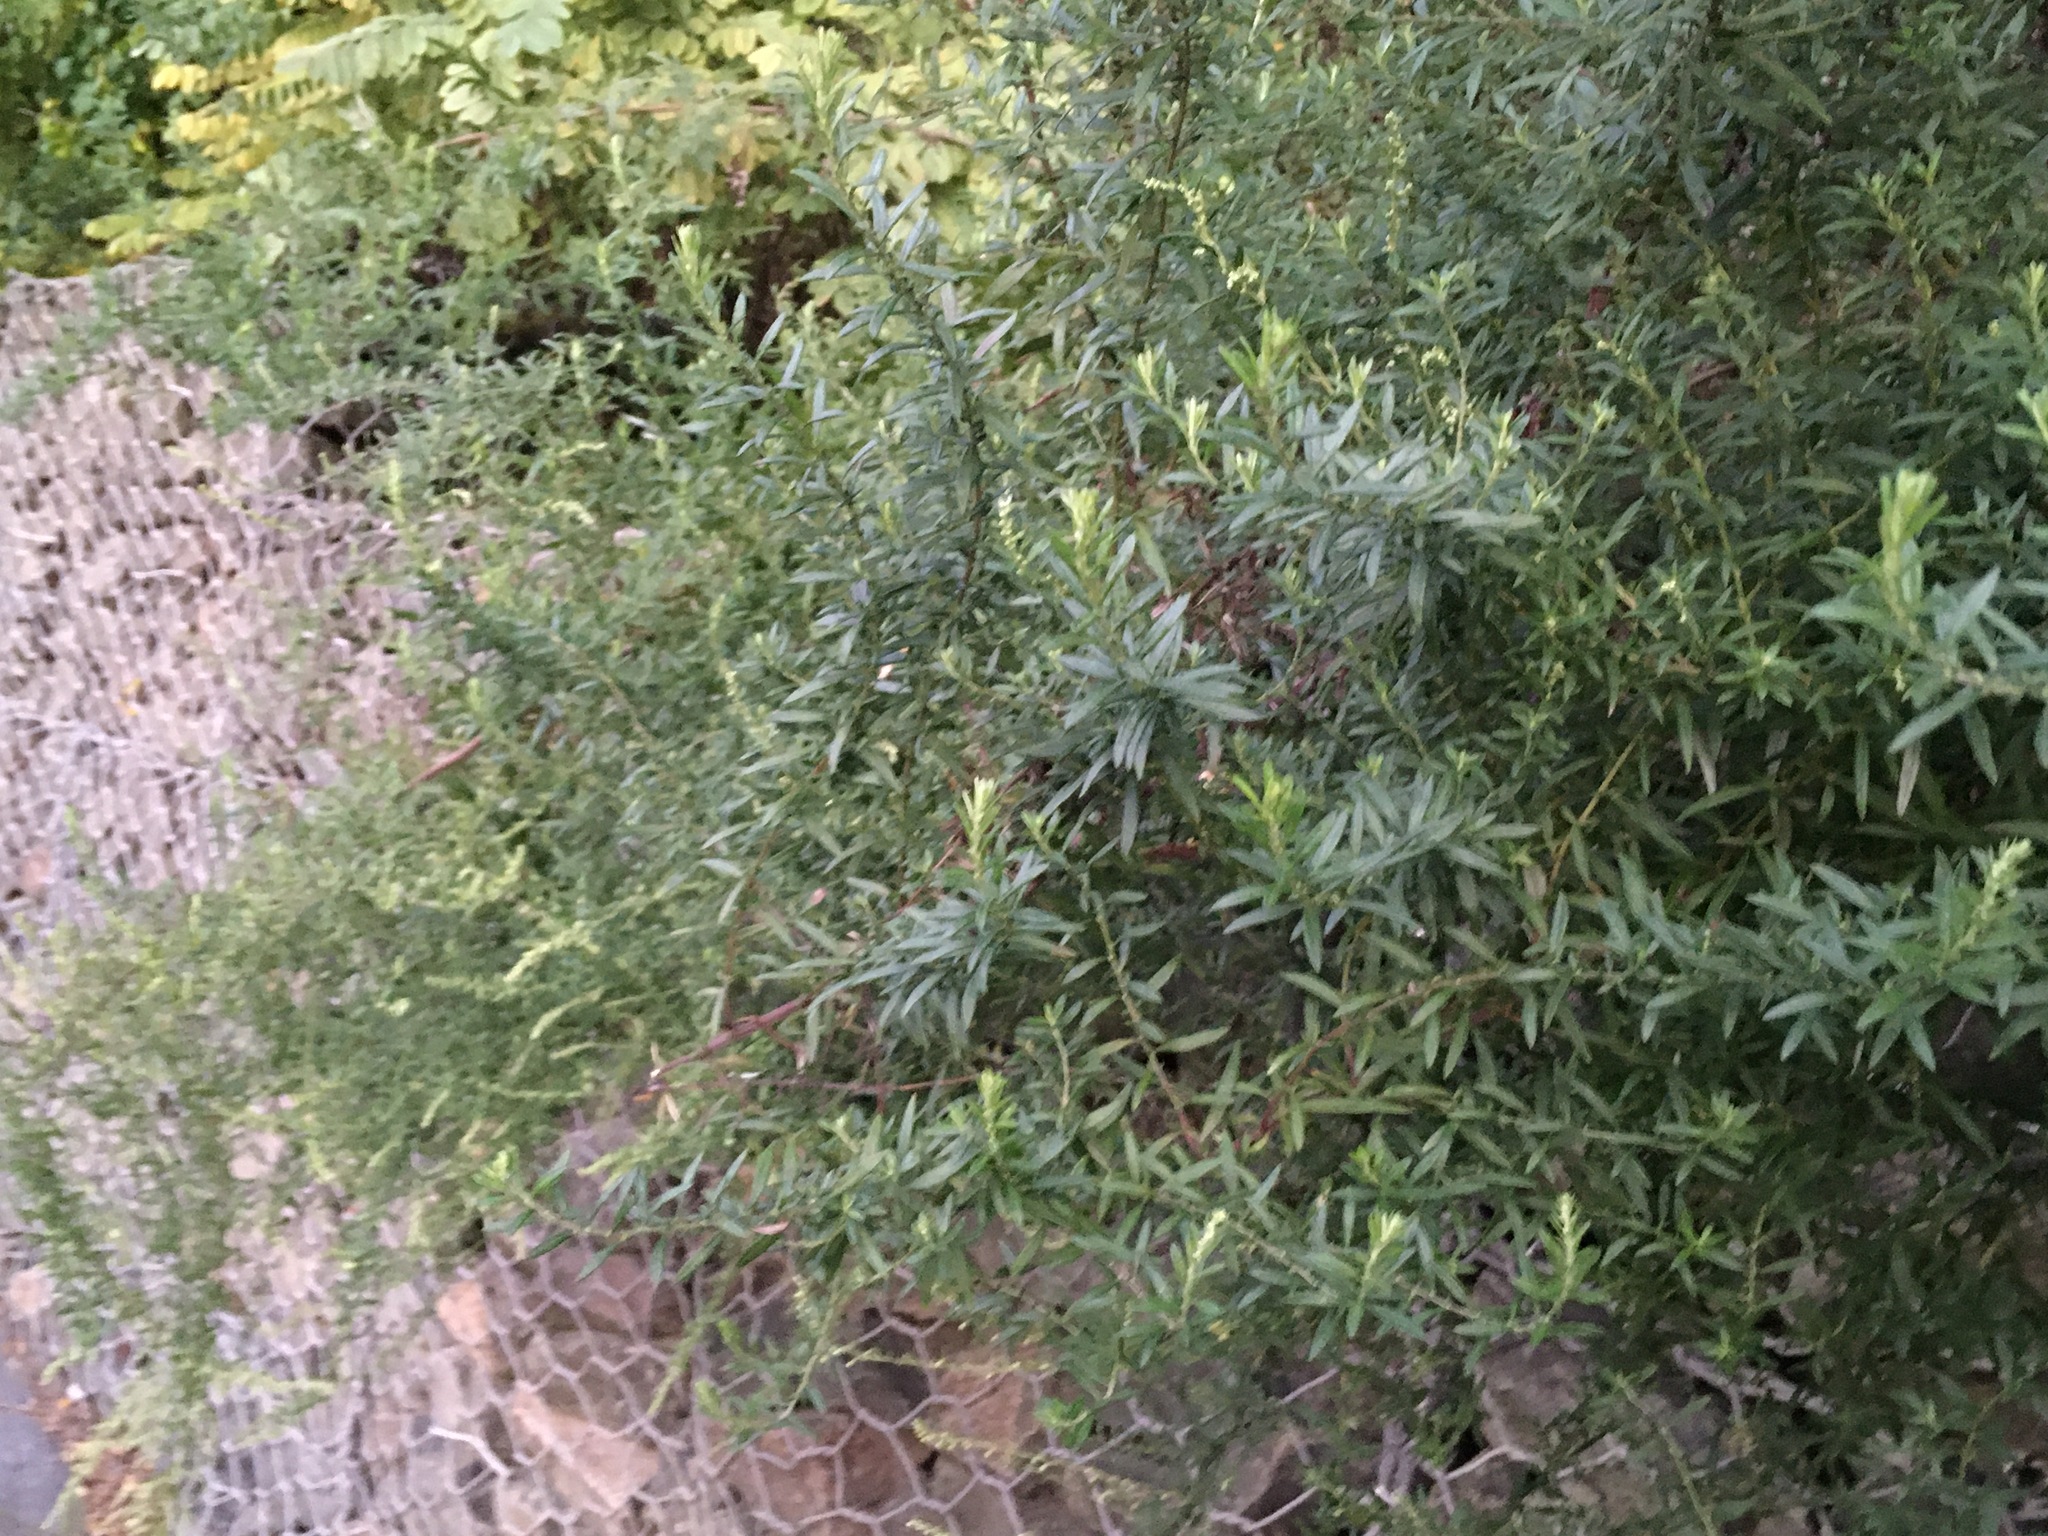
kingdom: Plantae
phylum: Tracheophyta
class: Magnoliopsida
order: Asterales
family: Asteraceae
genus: Artemisia
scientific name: Artemisia vulgaris
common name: Mugwort
